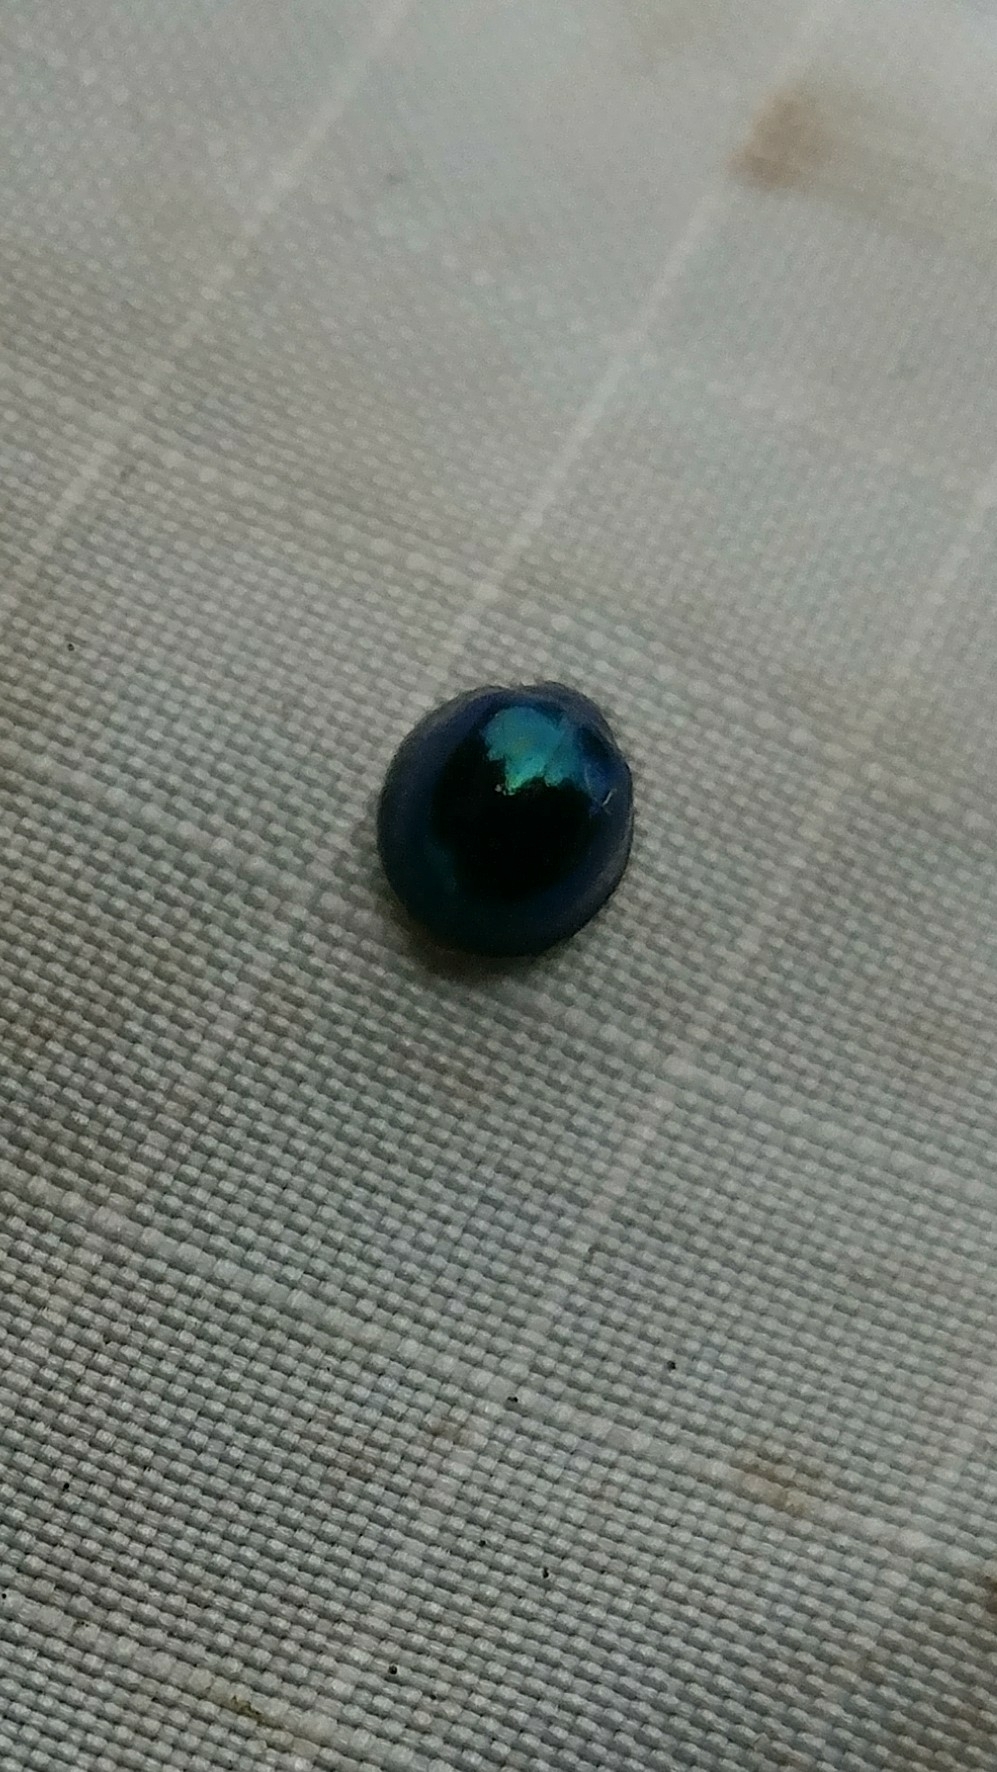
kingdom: Animalia
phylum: Arthropoda
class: Insecta
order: Coleoptera
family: Coccinellidae
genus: Halmus
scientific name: Halmus chalybeus
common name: Steel blue ladybird beetle
